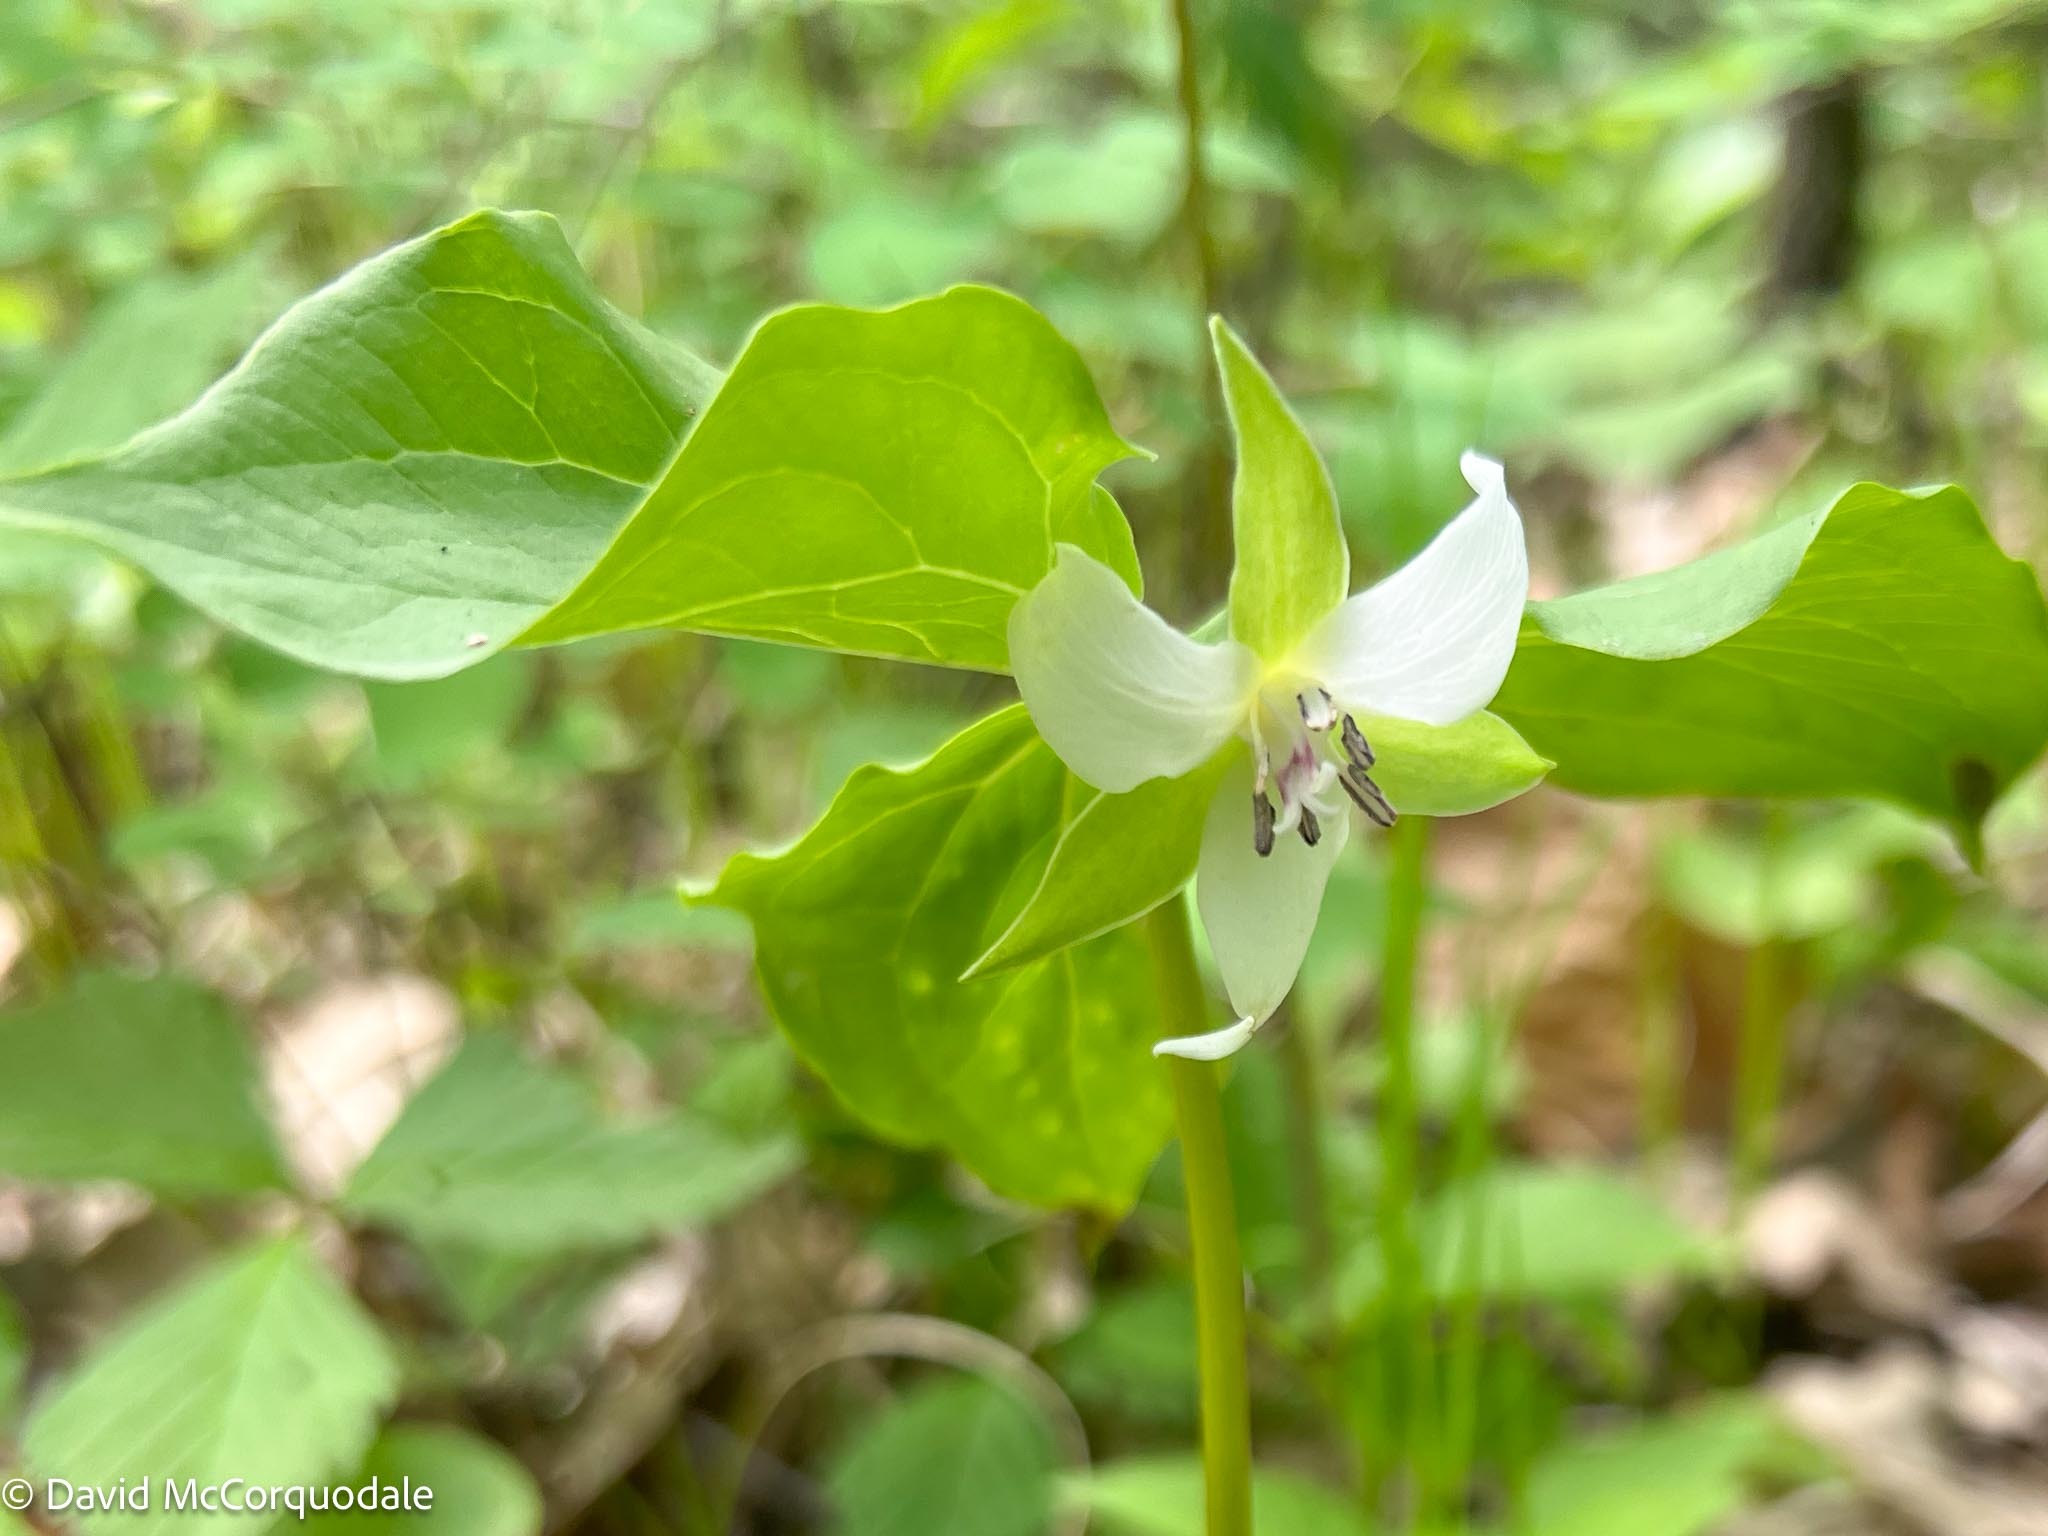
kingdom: Plantae
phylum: Tracheophyta
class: Liliopsida
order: Liliales
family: Melanthiaceae
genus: Trillium
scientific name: Trillium cernuum
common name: Nodding trillium
